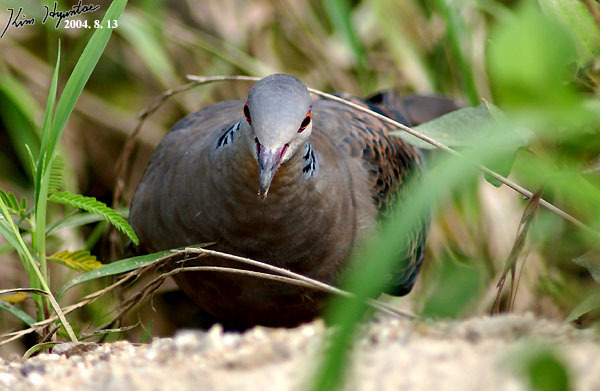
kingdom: Animalia
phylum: Chordata
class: Aves
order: Columbiformes
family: Columbidae
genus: Streptopelia
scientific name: Streptopelia orientalis
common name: Oriental turtle dove
